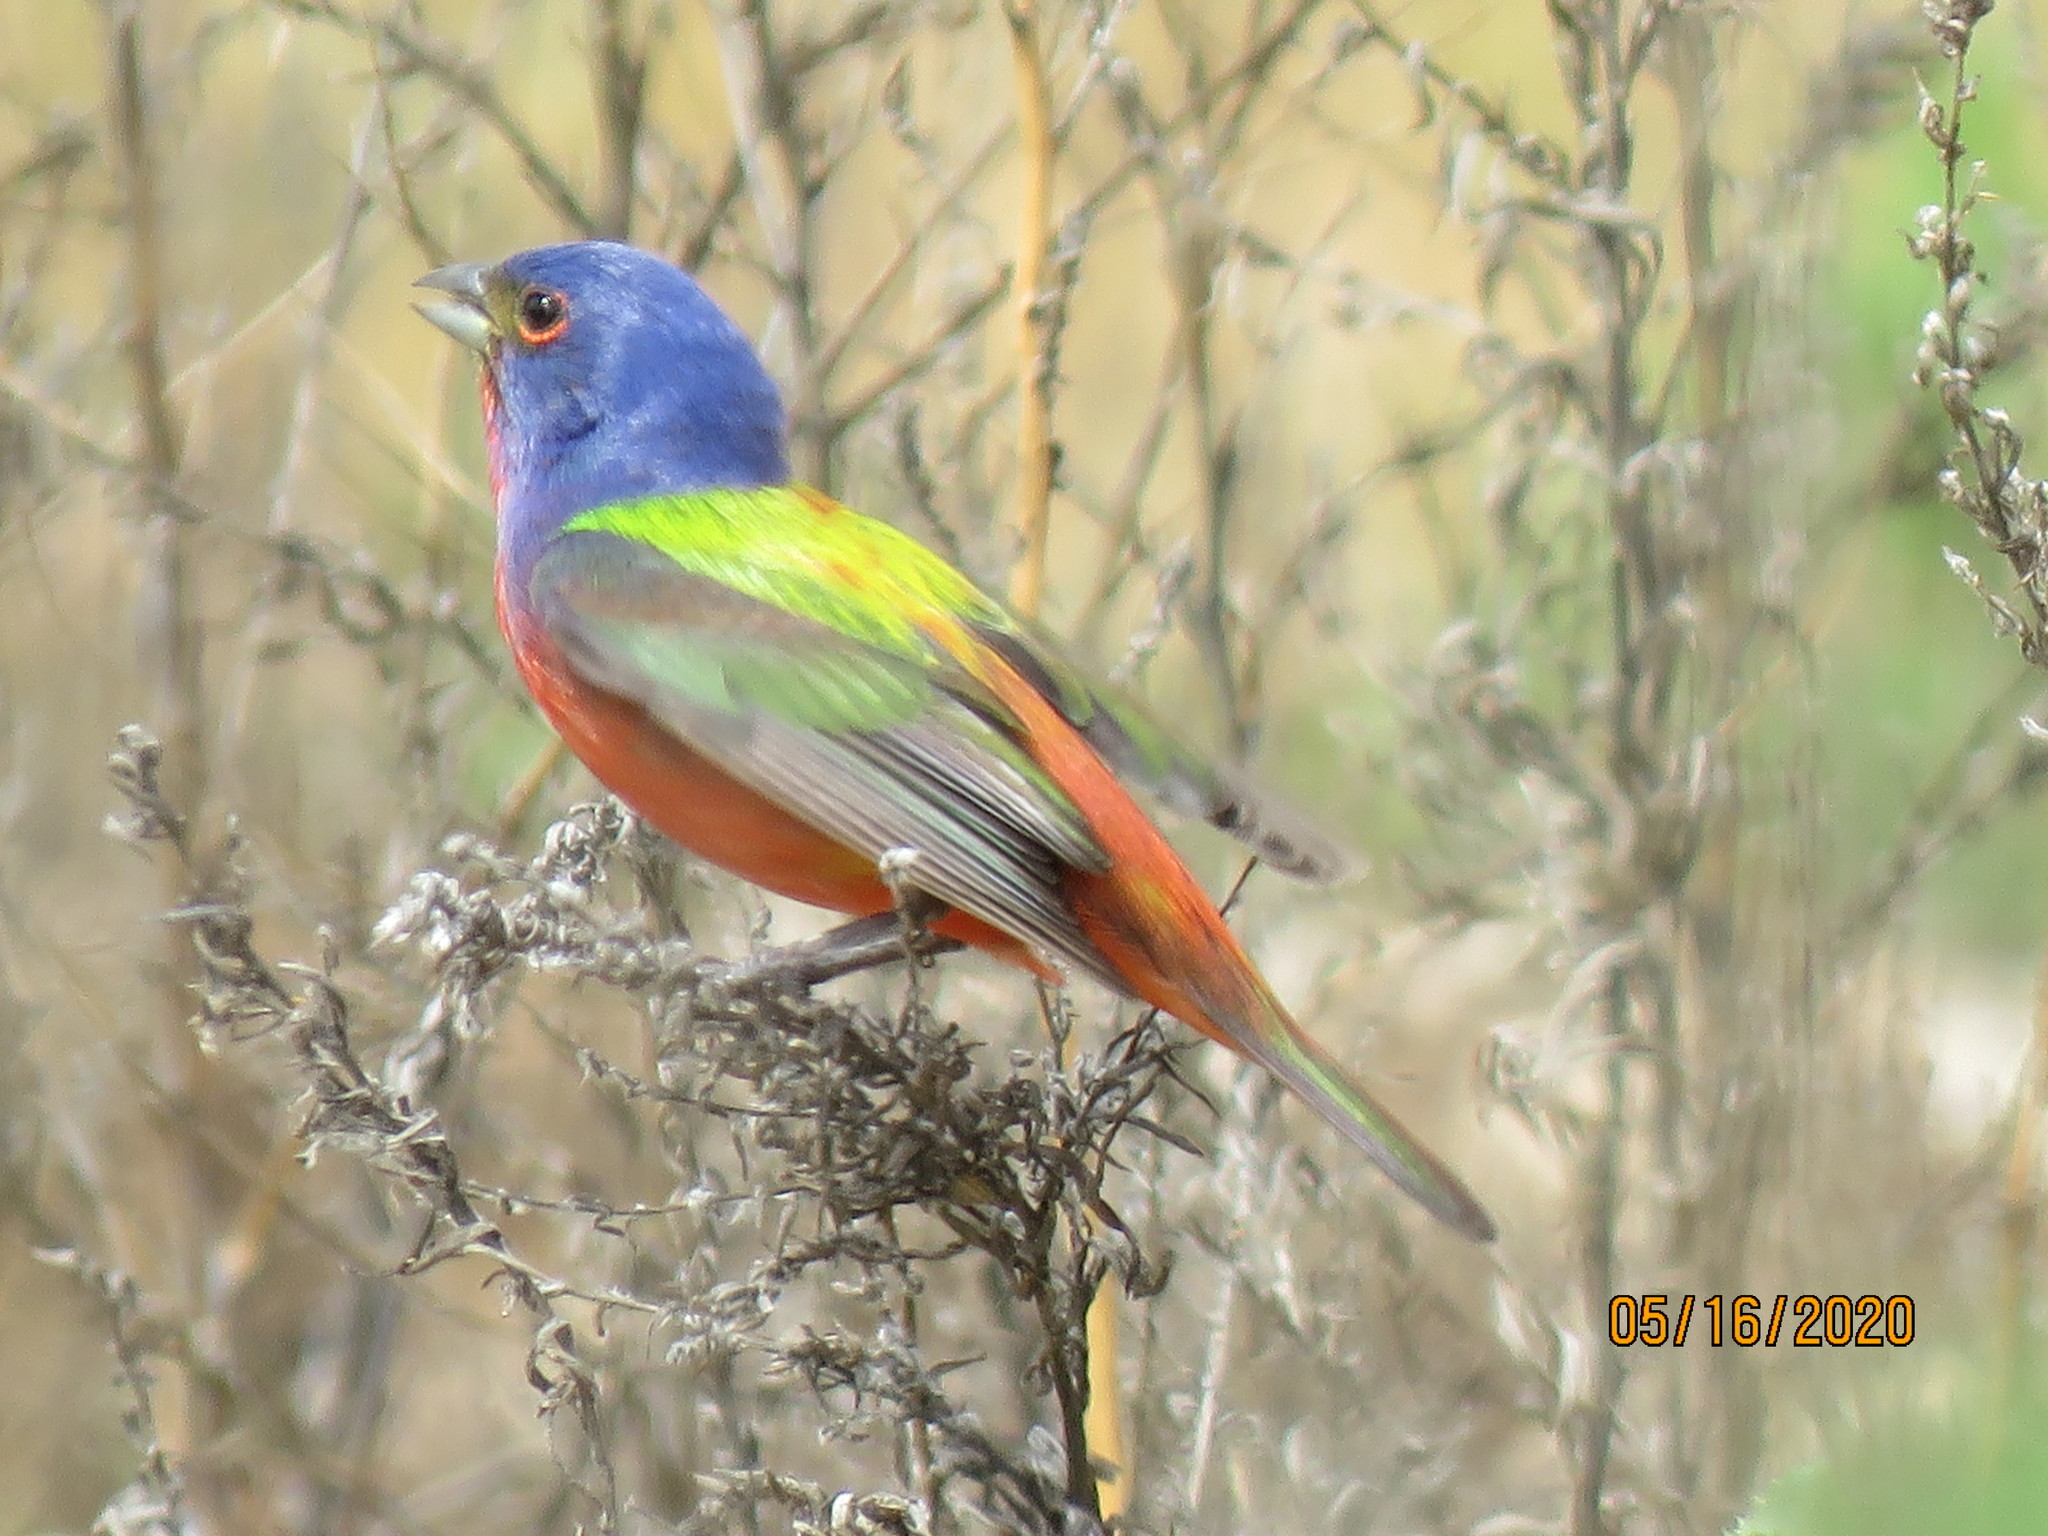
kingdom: Animalia
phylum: Chordata
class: Aves
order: Passeriformes
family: Cardinalidae
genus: Passerina
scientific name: Passerina ciris
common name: Painted bunting
